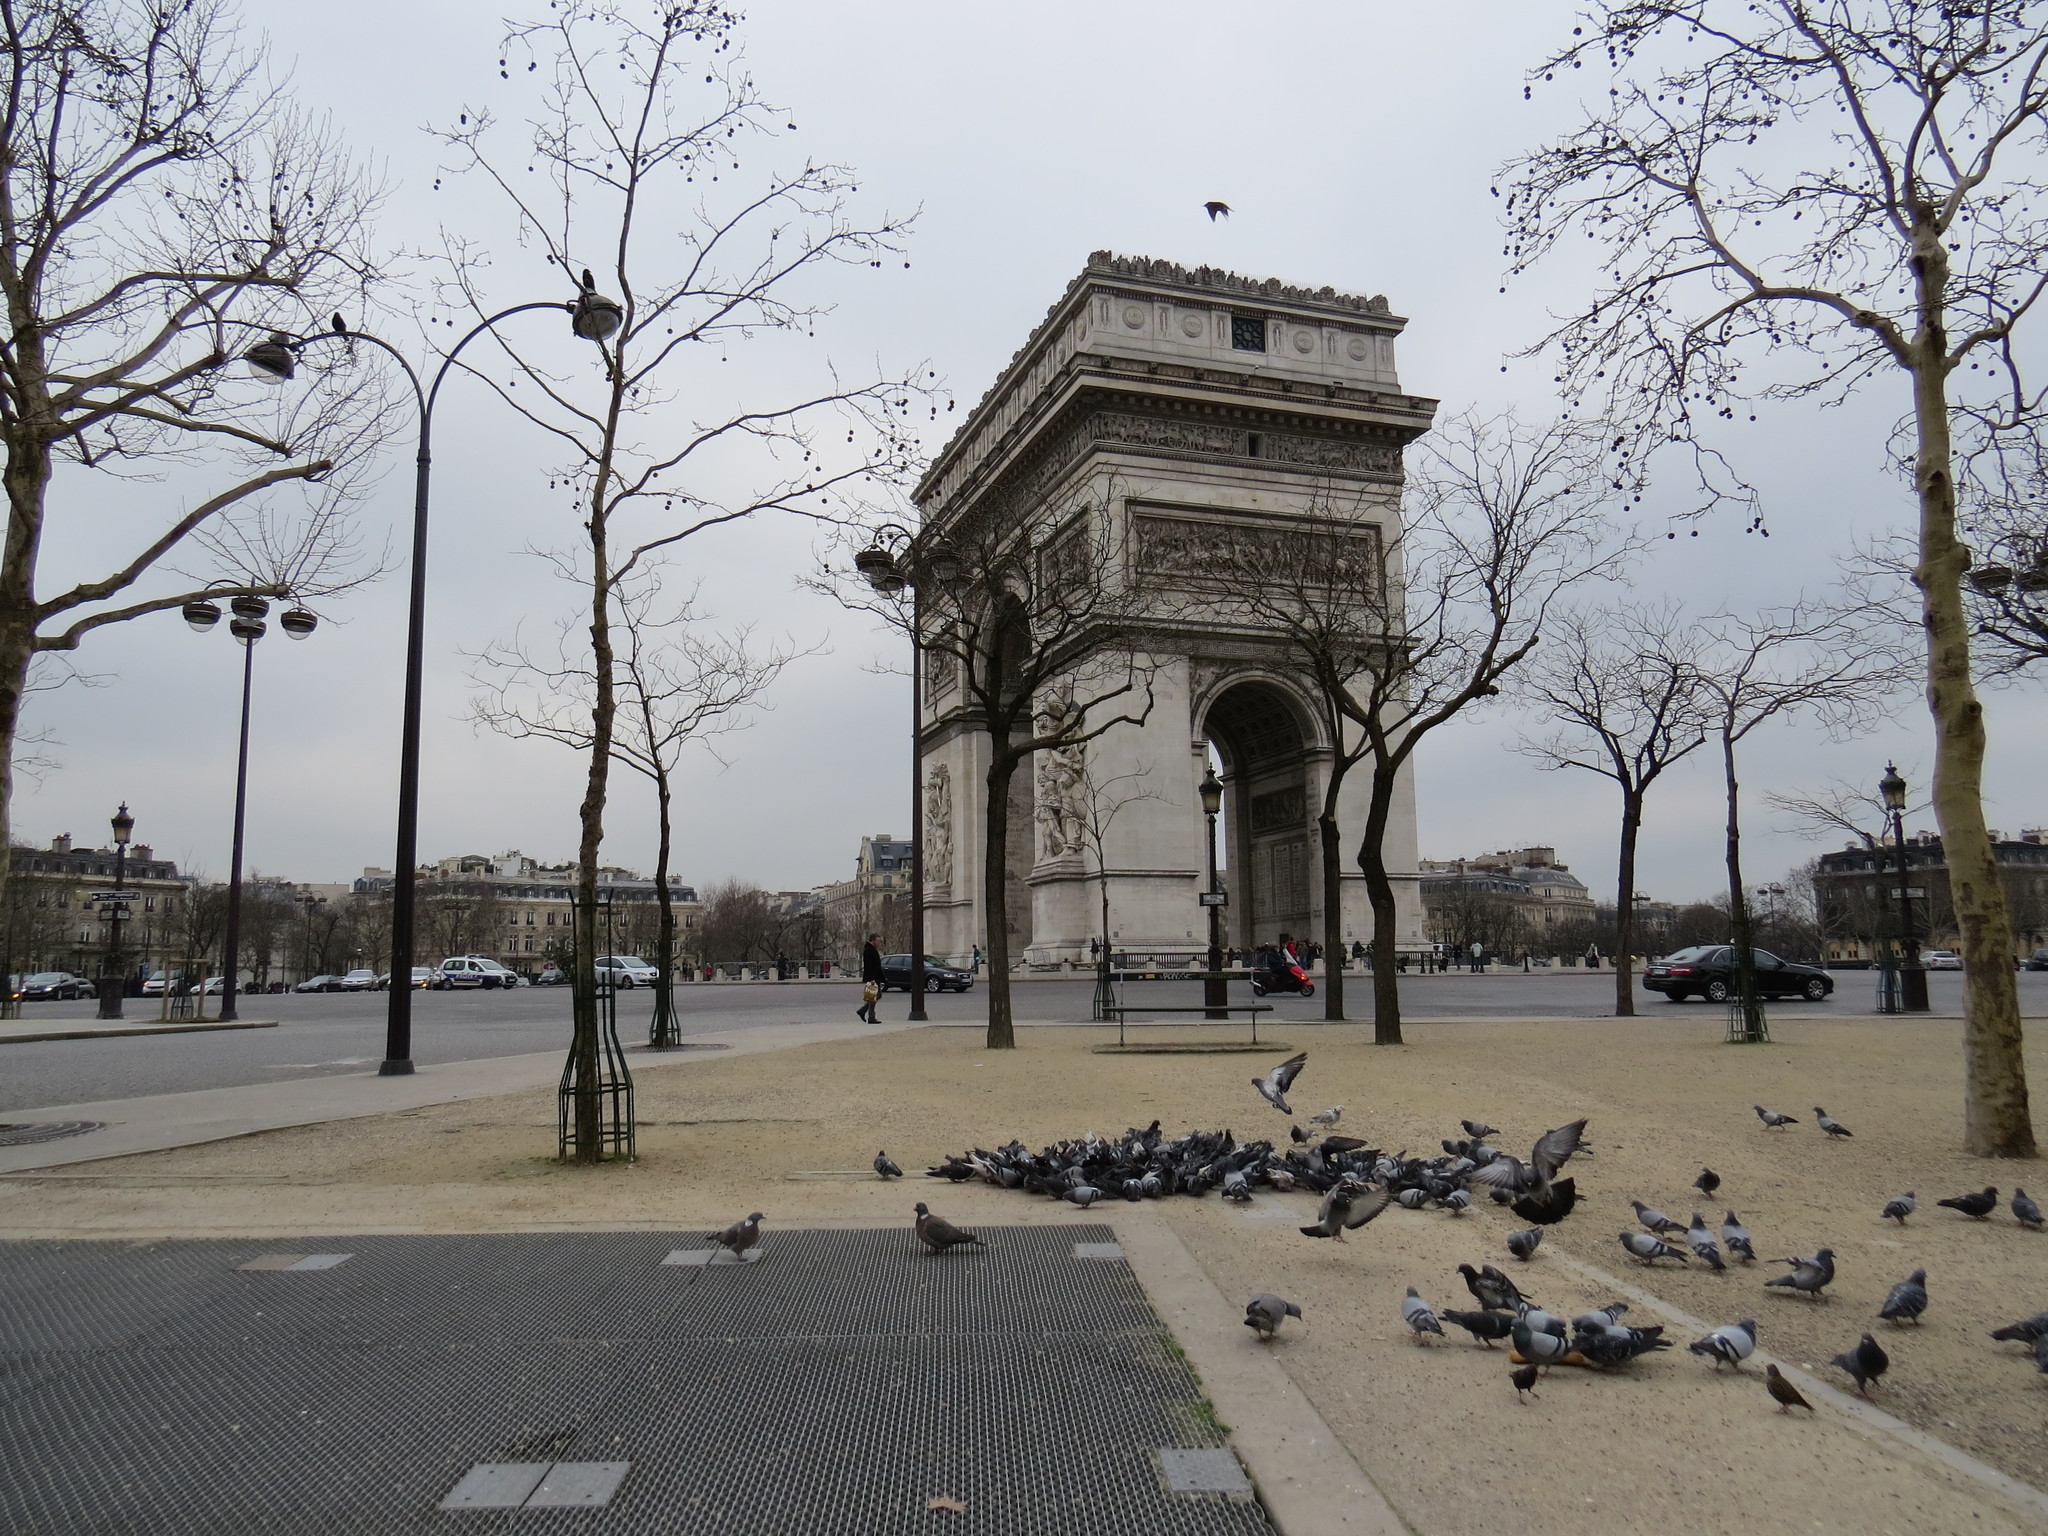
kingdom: Animalia
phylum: Chordata
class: Aves
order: Columbiformes
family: Columbidae
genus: Columba
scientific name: Columba livia
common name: Rock pigeon
